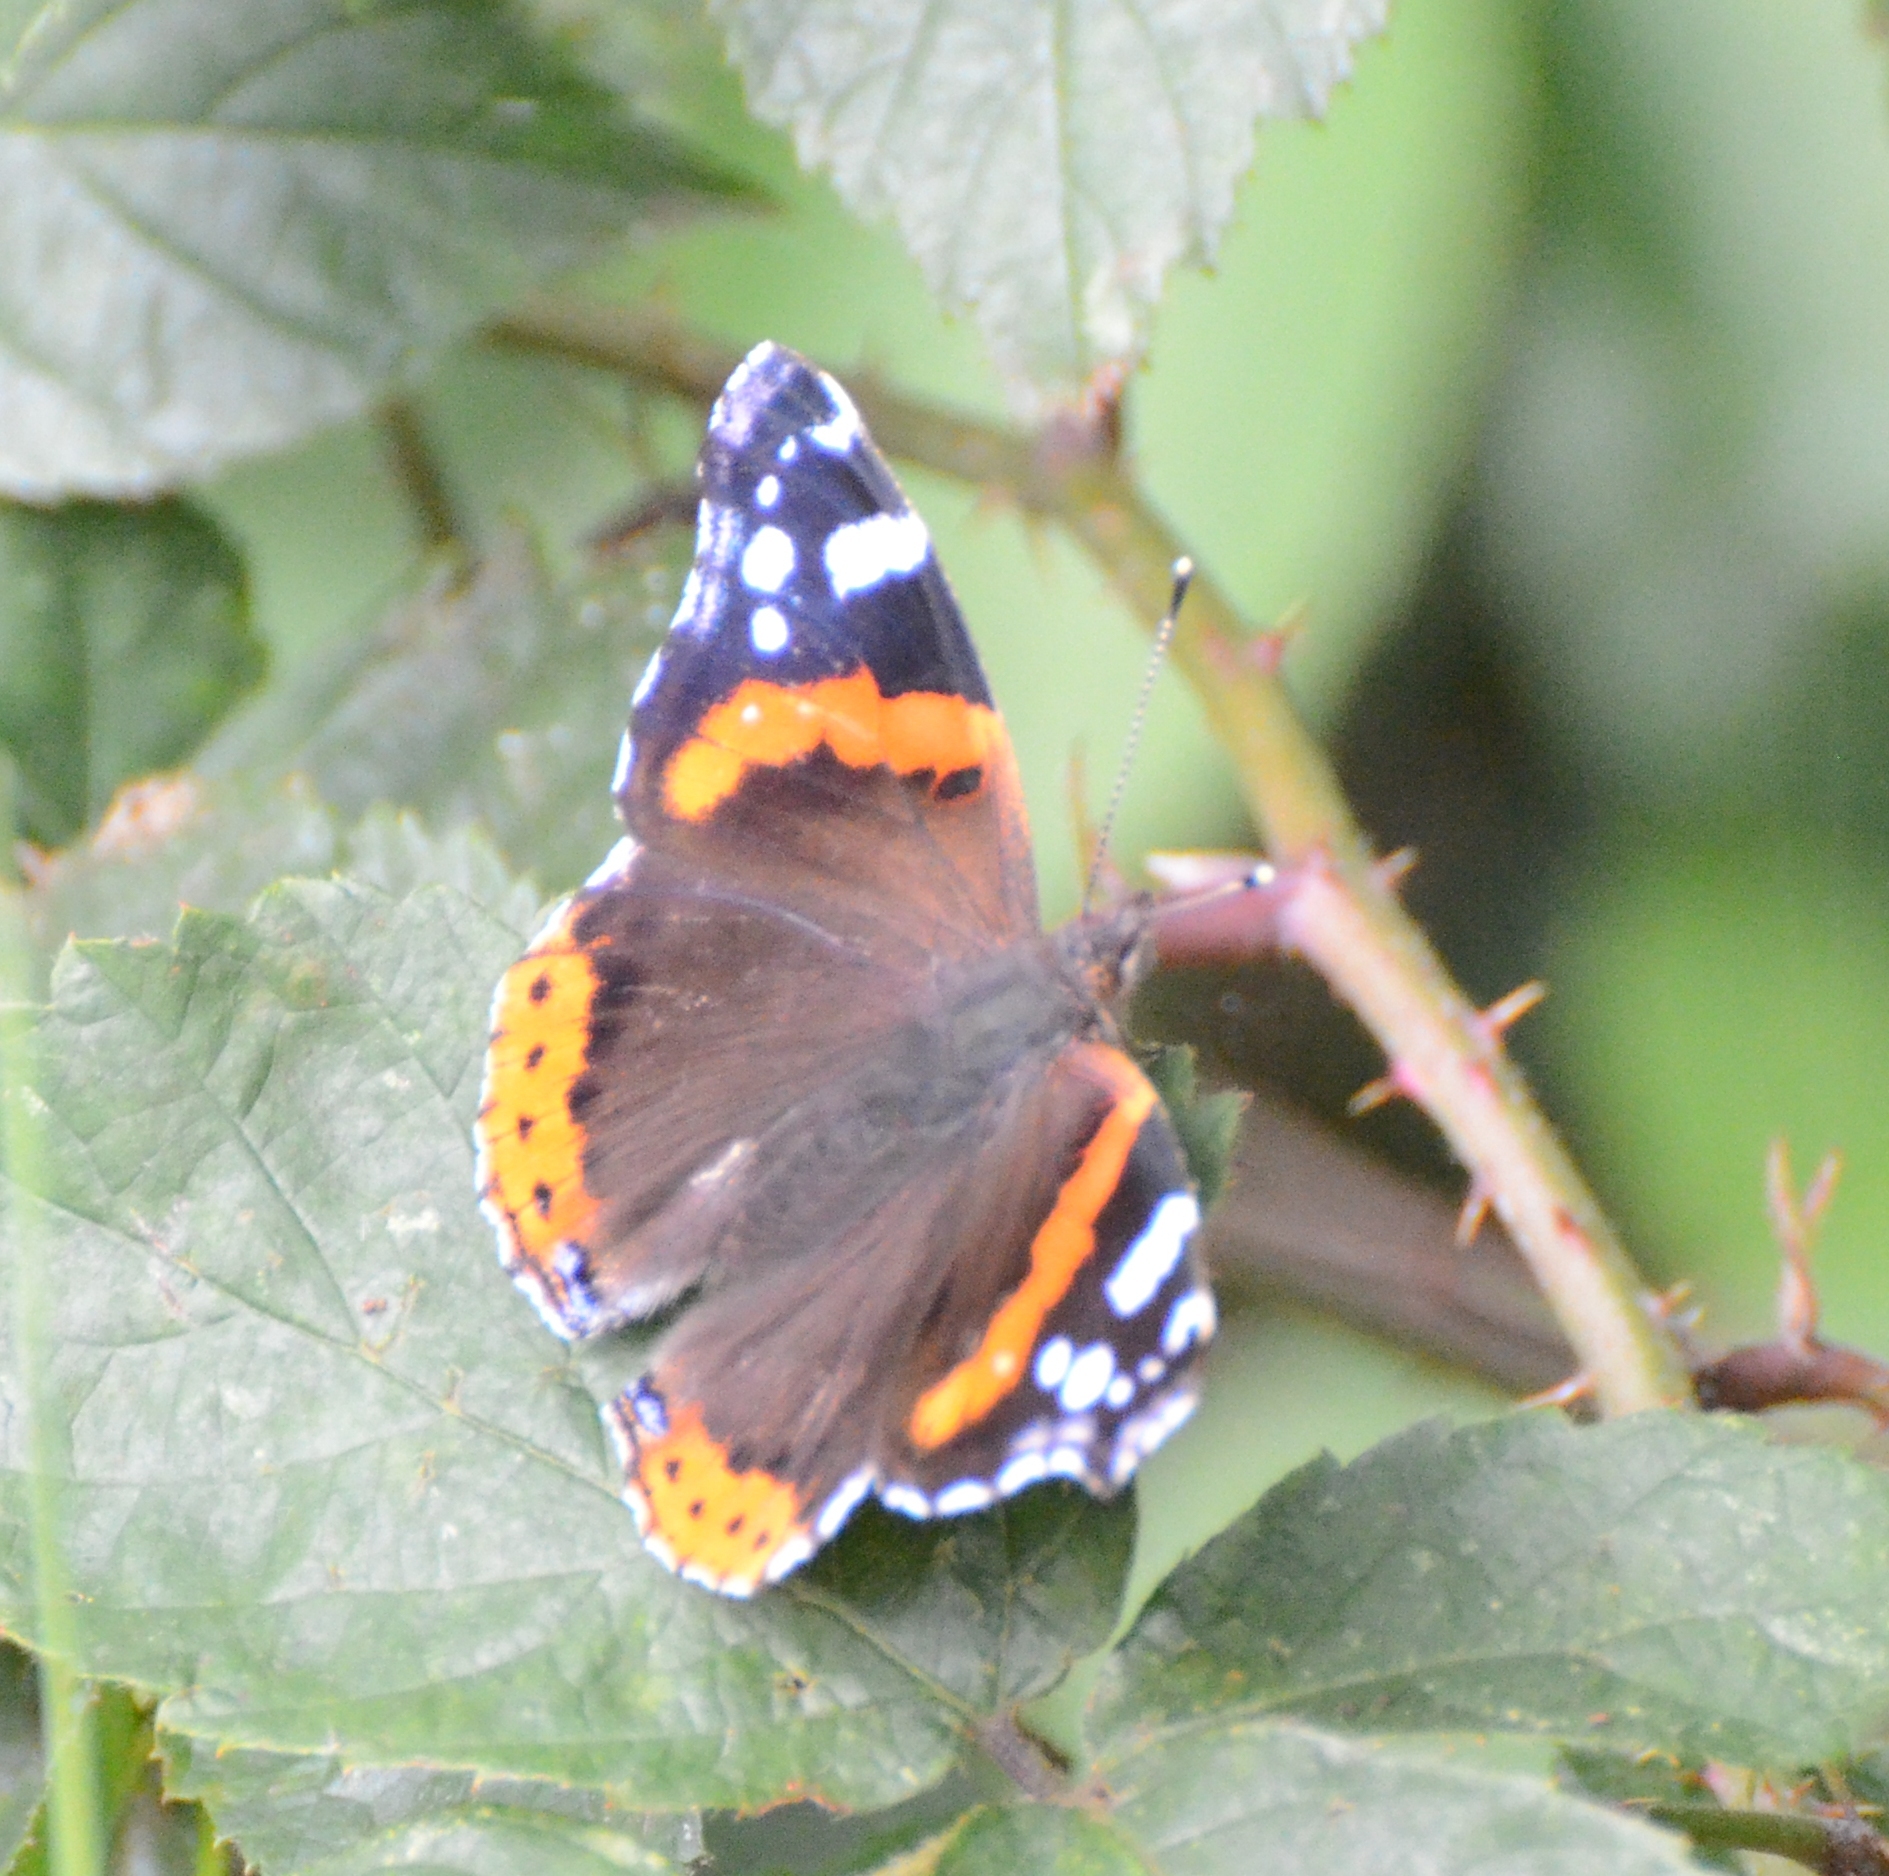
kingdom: Animalia
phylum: Arthropoda
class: Insecta
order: Lepidoptera
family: Nymphalidae
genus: Vanessa
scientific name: Vanessa atalanta
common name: Red admiral
